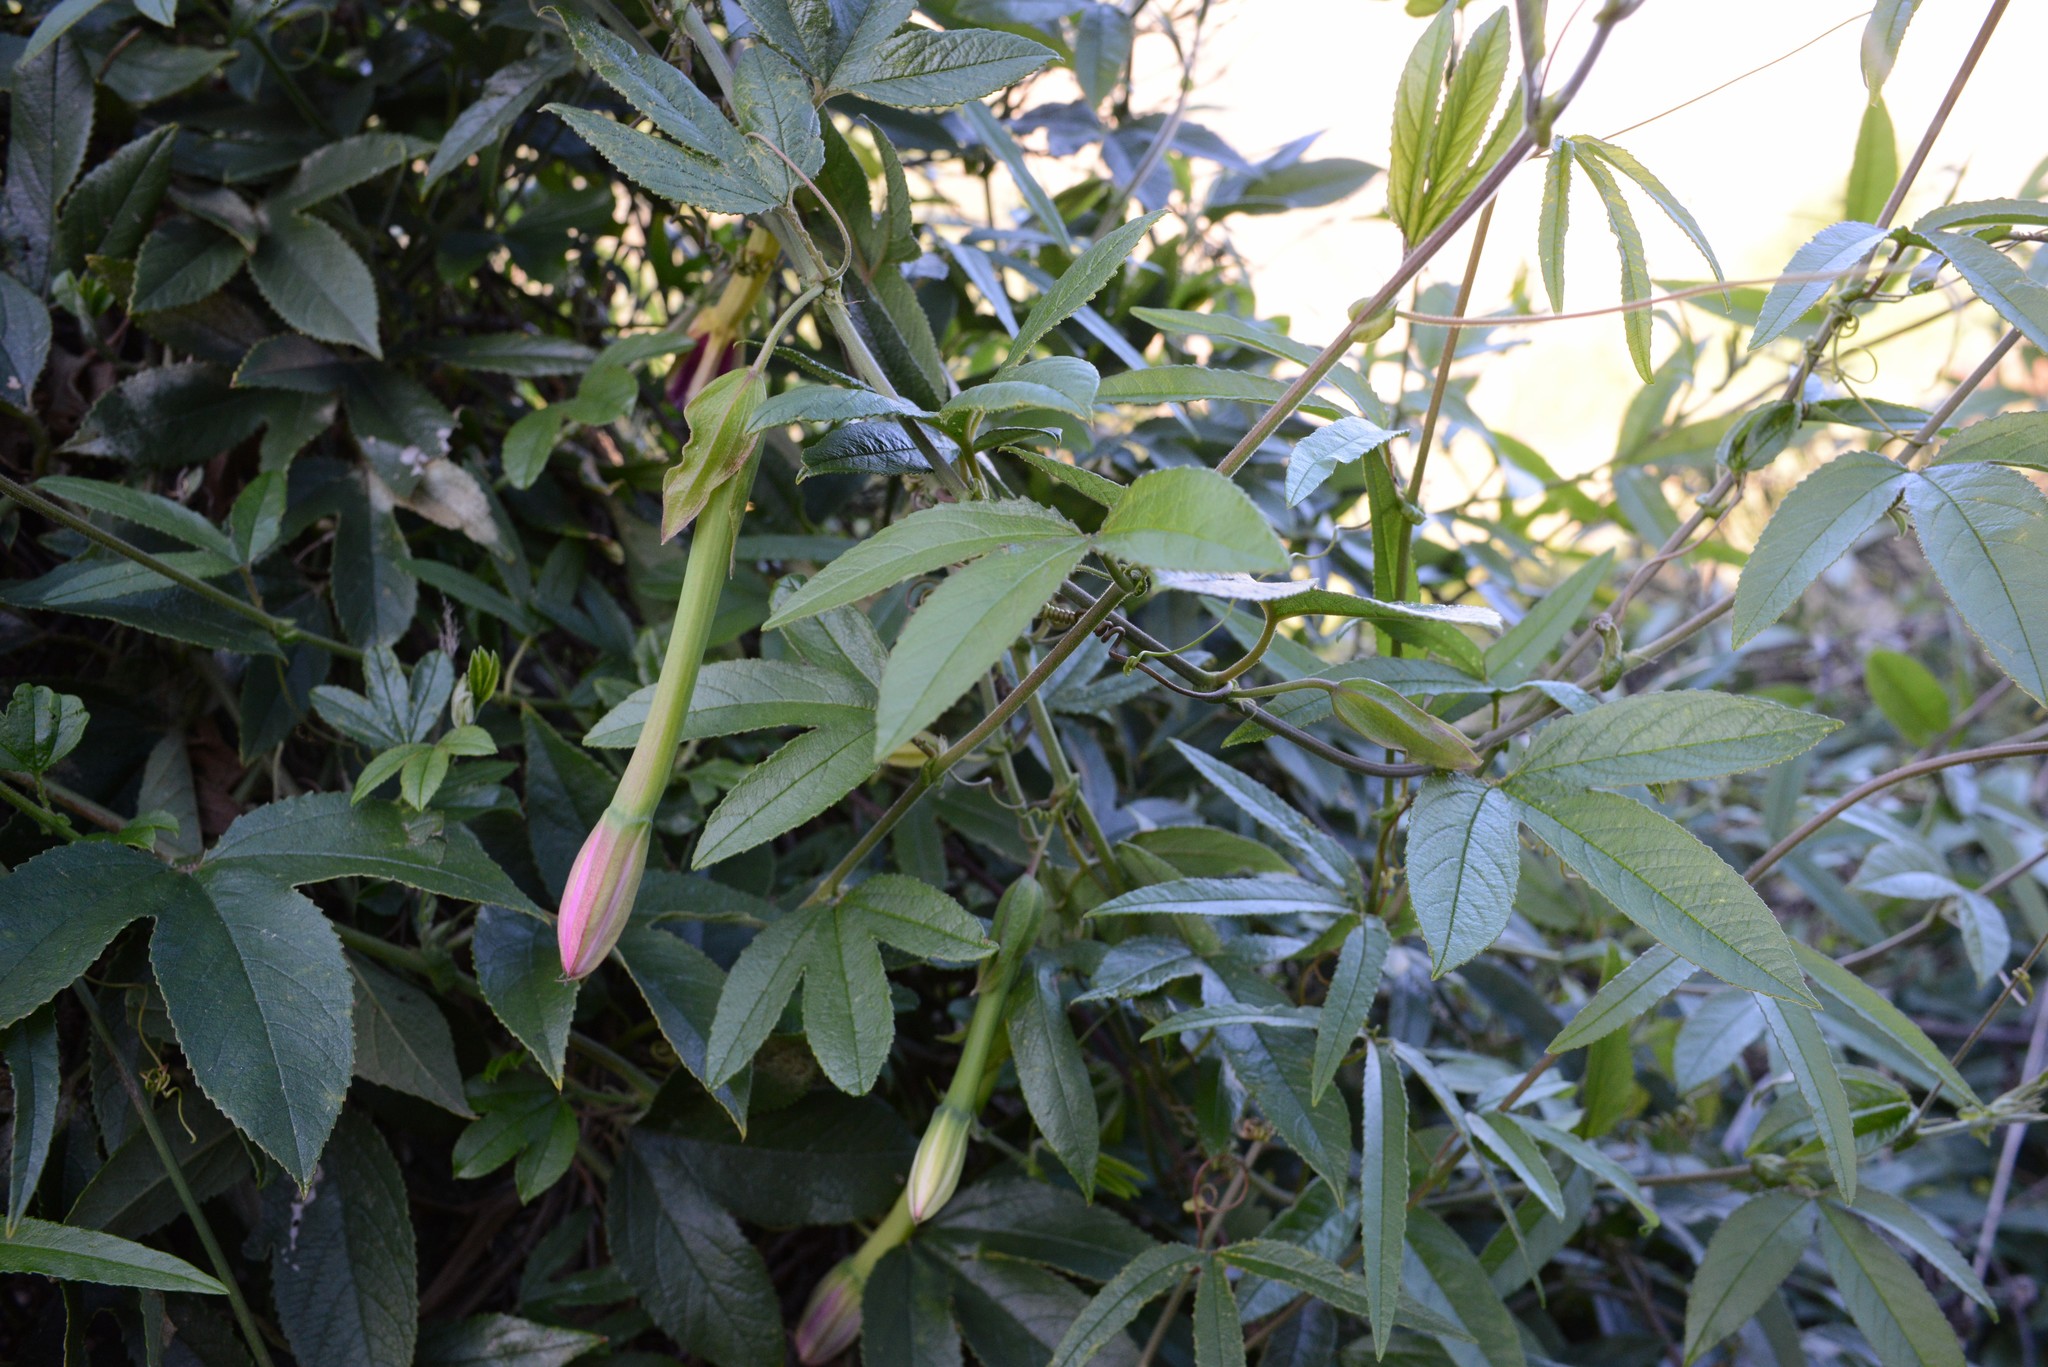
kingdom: Plantae
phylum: Tracheophyta
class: Magnoliopsida
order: Malpighiales
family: Passifloraceae
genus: Passiflora
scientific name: Passiflora tripartita
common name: Banana poka
